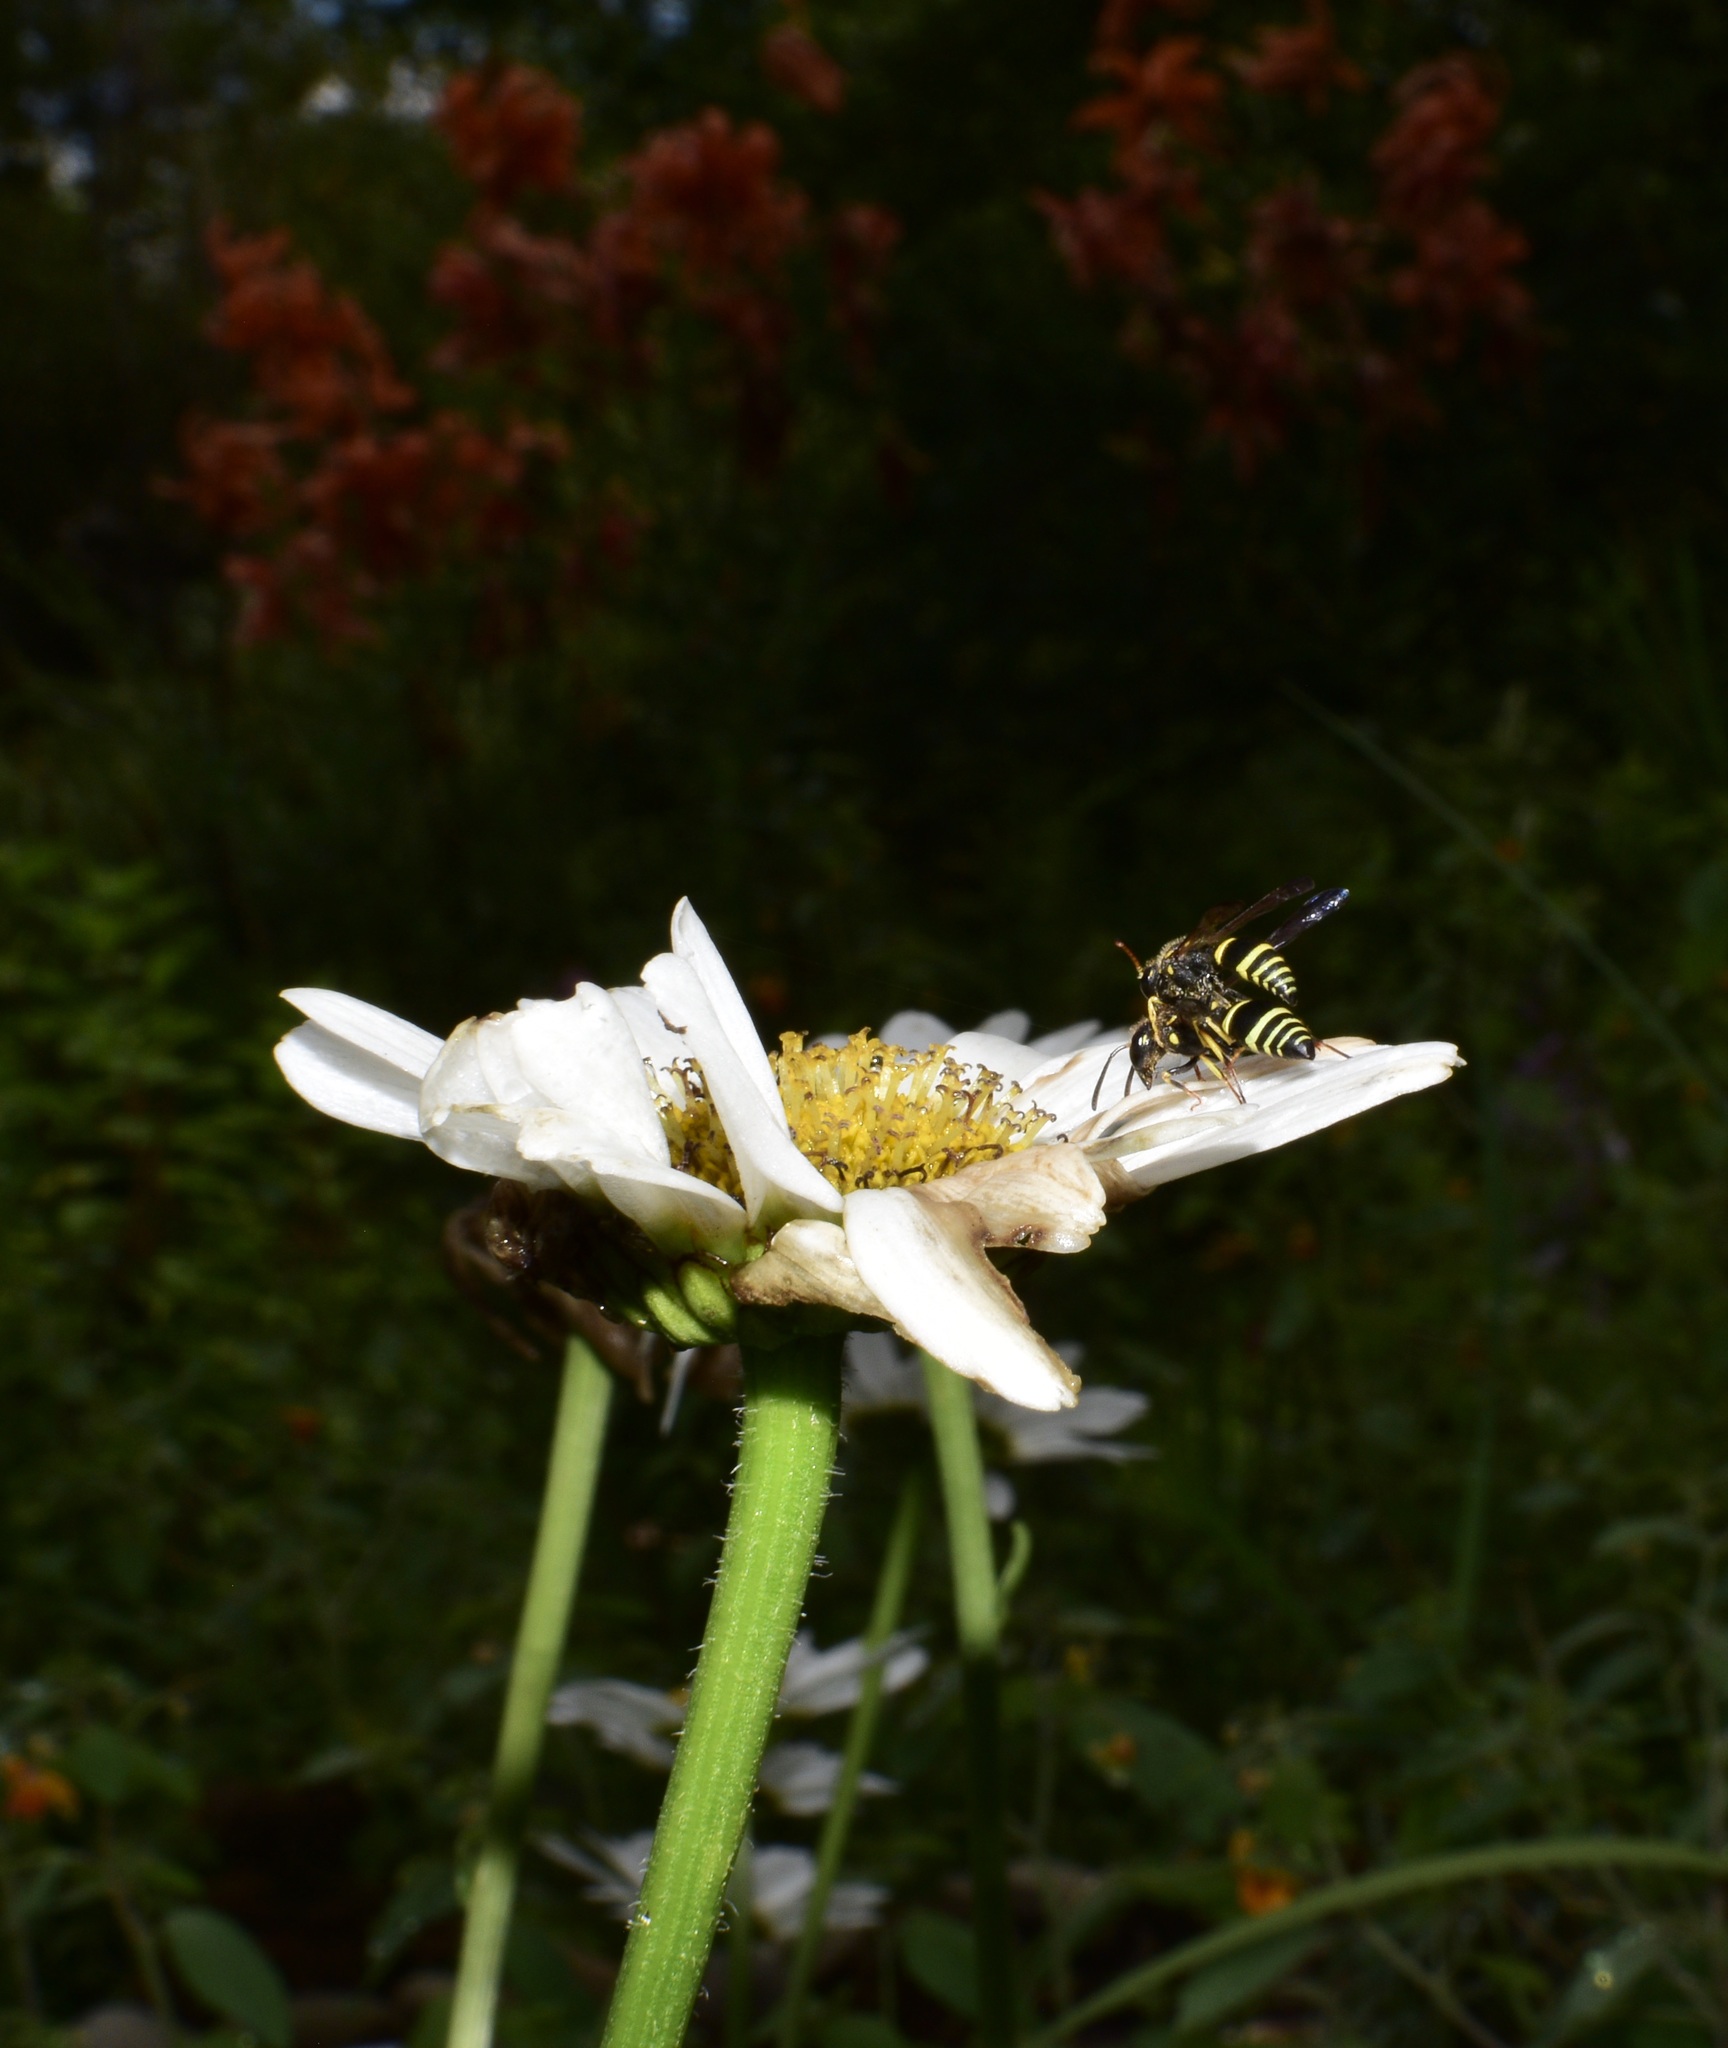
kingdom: Animalia
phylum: Arthropoda
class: Insecta
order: Hymenoptera
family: Vespidae
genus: Ancistrocerus
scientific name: Ancistrocerus
